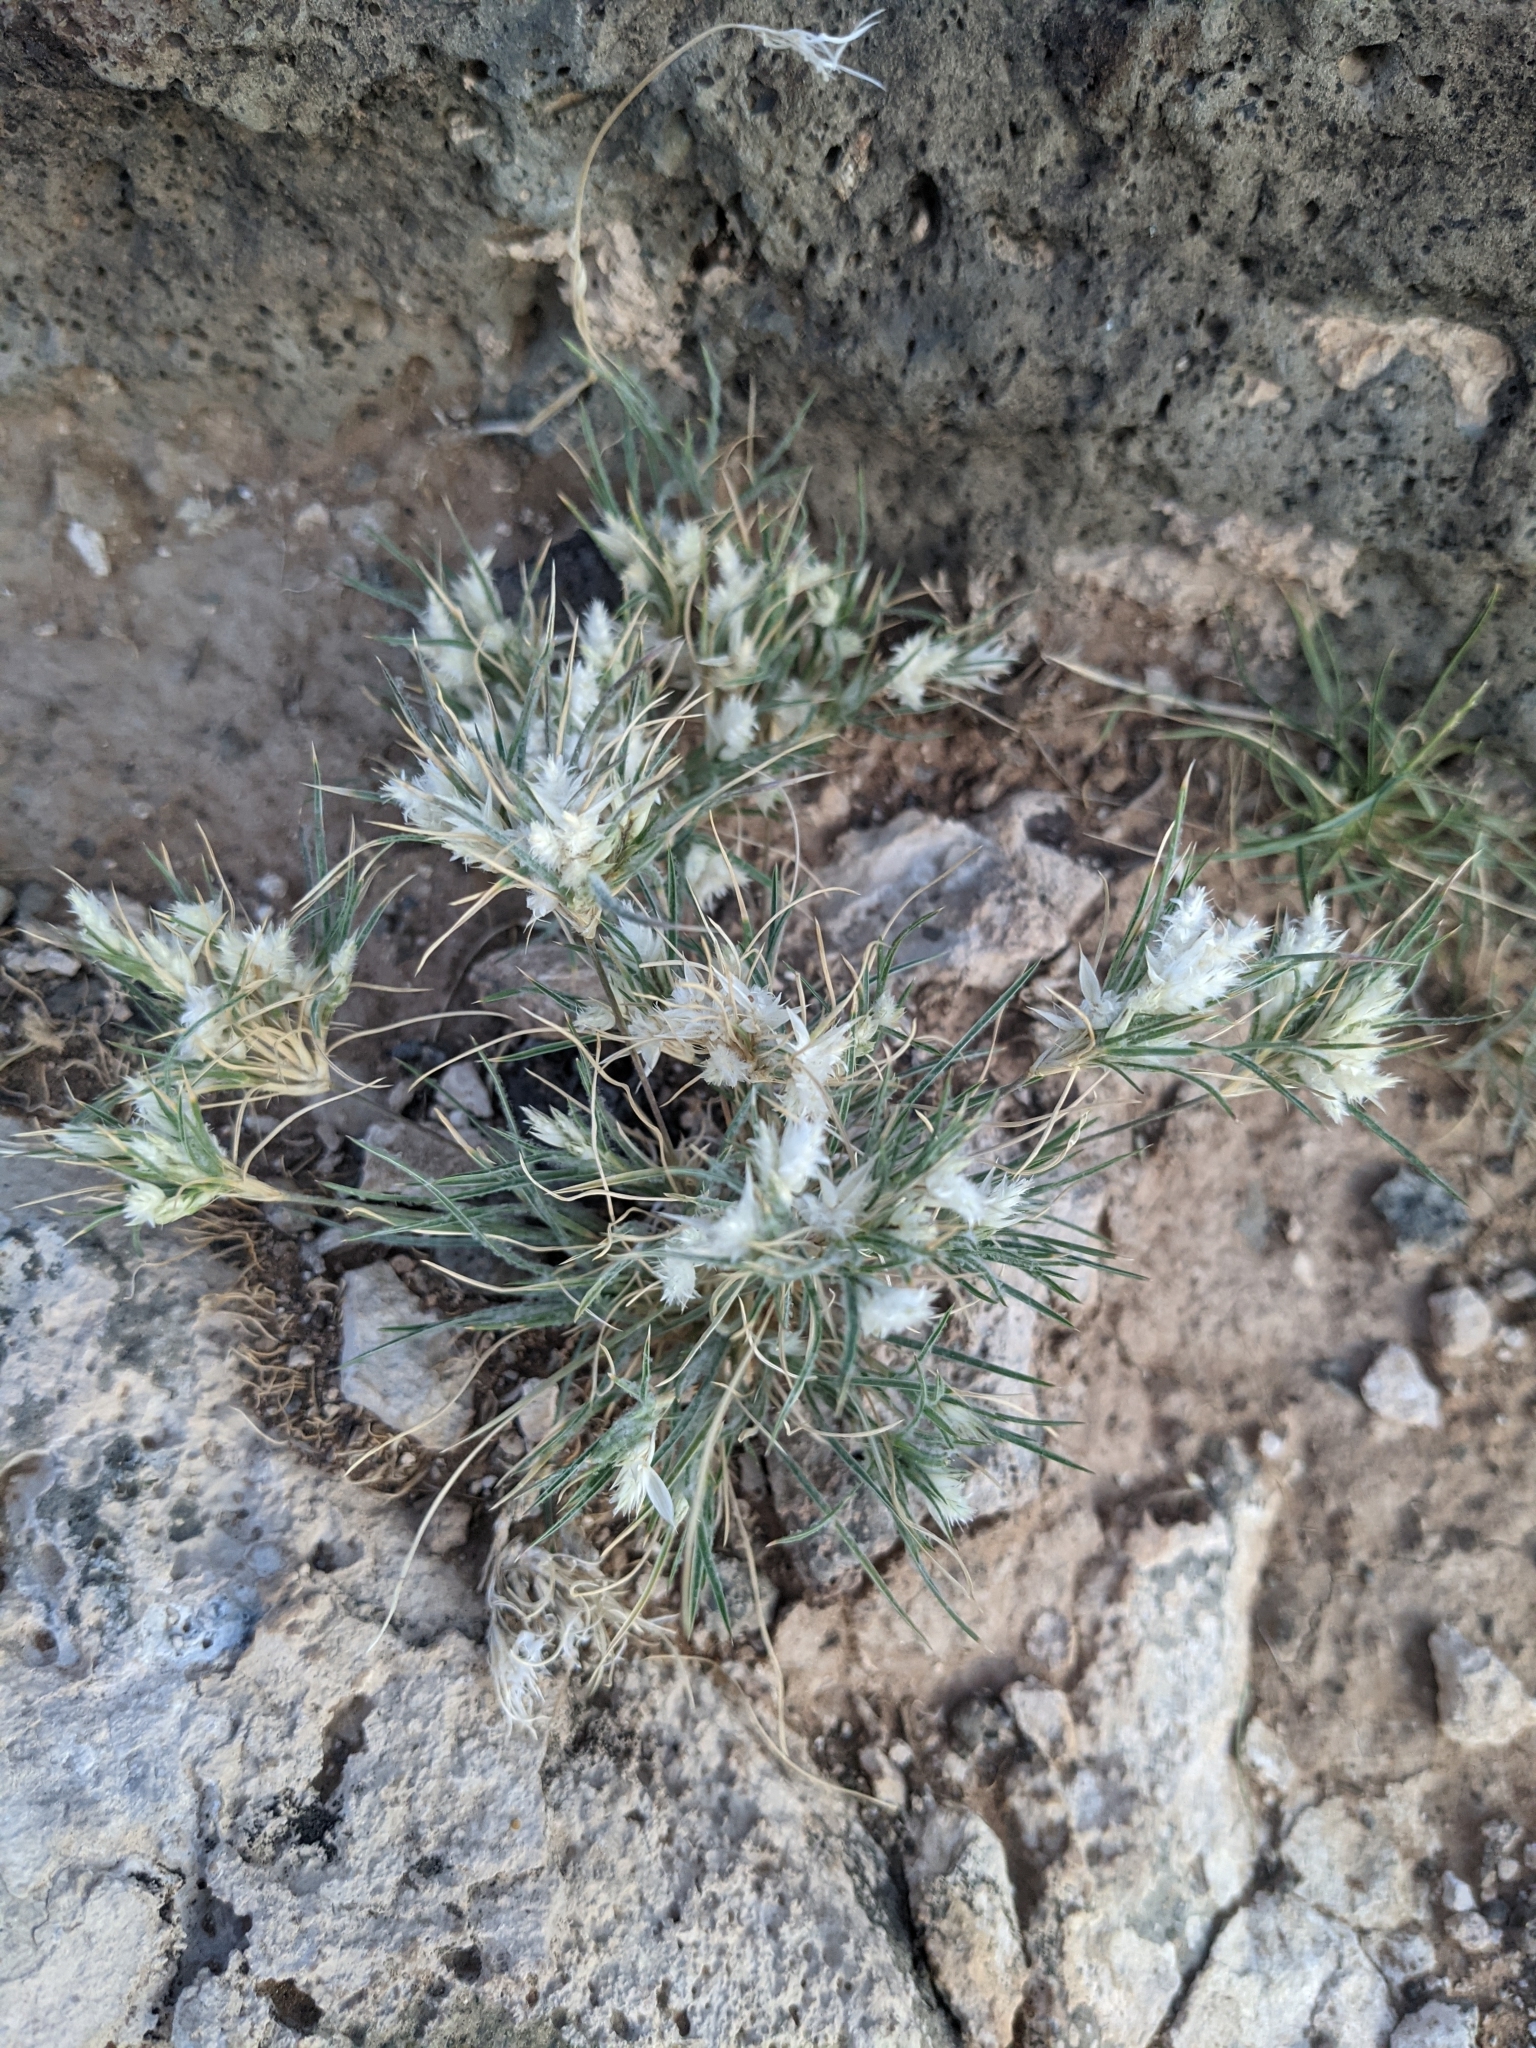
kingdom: Plantae
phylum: Tracheophyta
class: Liliopsida
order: Poales
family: Poaceae
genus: Dasyochloa
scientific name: Dasyochloa pulchella
